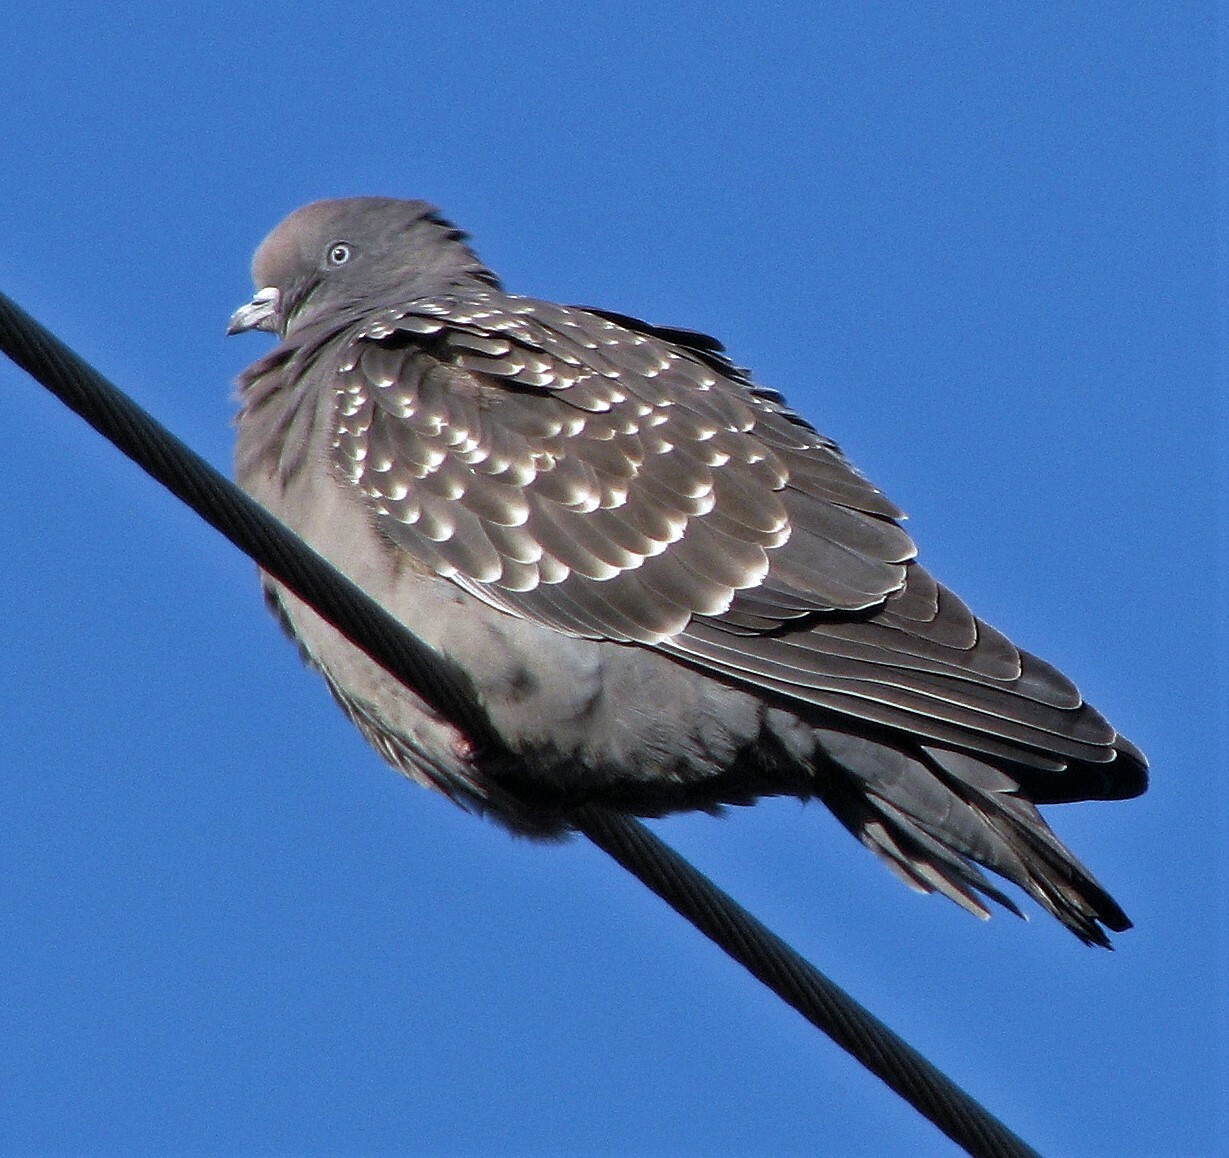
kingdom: Animalia
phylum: Chordata
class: Aves
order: Columbiformes
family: Columbidae
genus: Patagioenas
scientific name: Patagioenas maculosa
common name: Spot-winged pigeon
